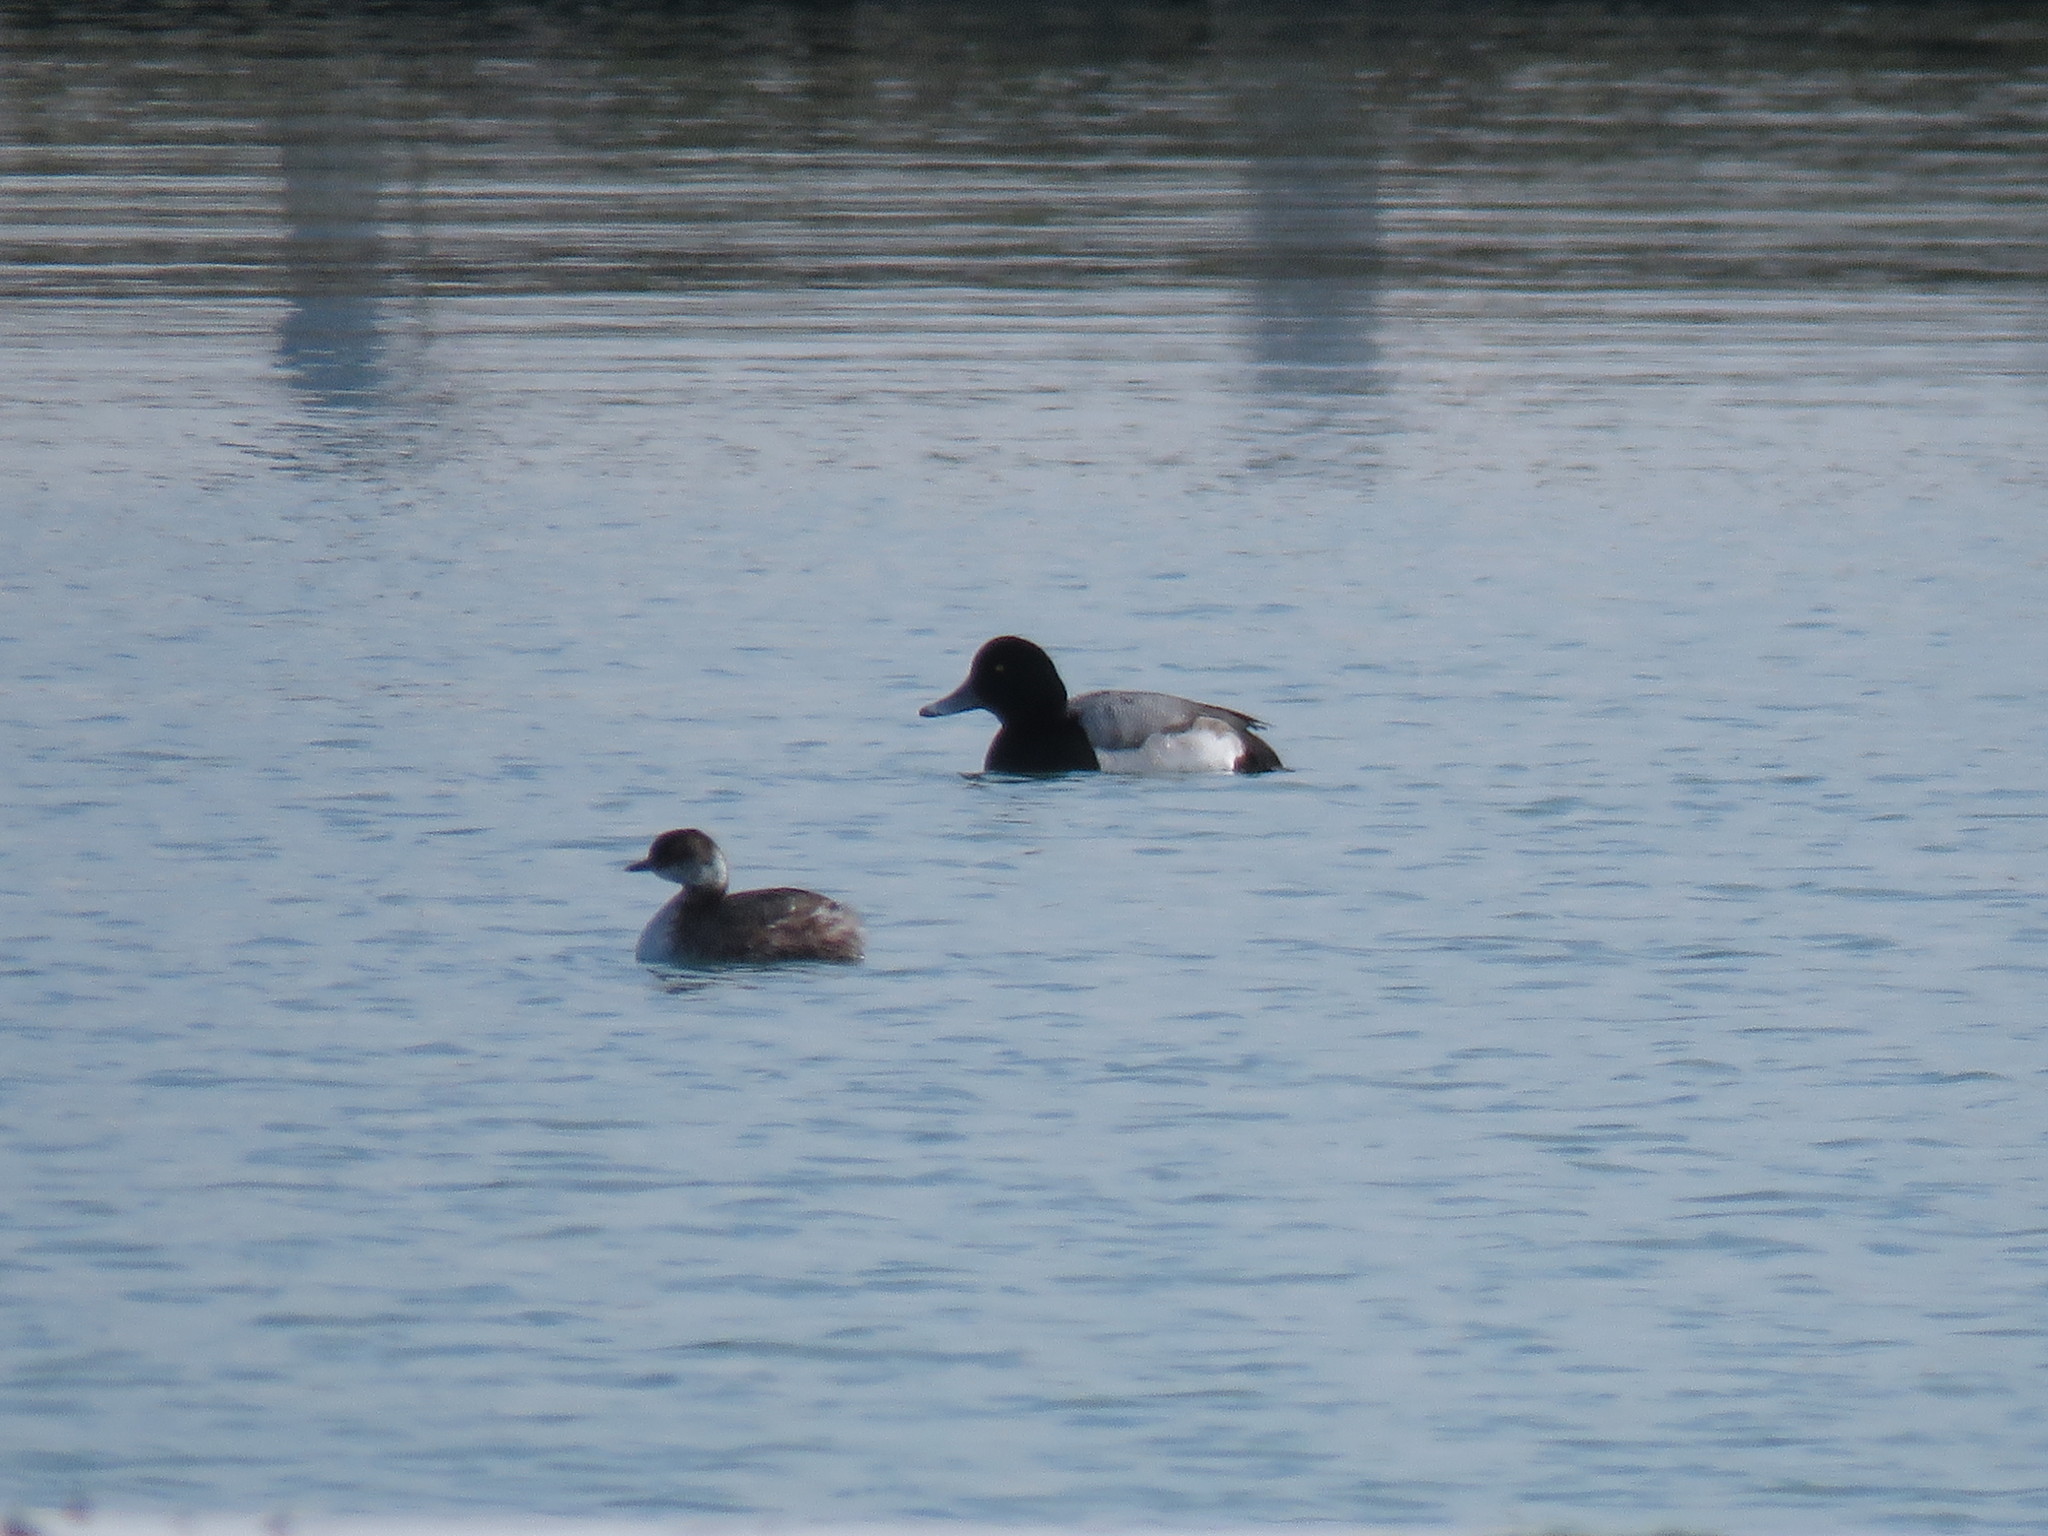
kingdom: Animalia
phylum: Chordata
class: Aves
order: Anseriformes
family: Anatidae
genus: Aythya
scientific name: Aythya marila
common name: Greater scaup
